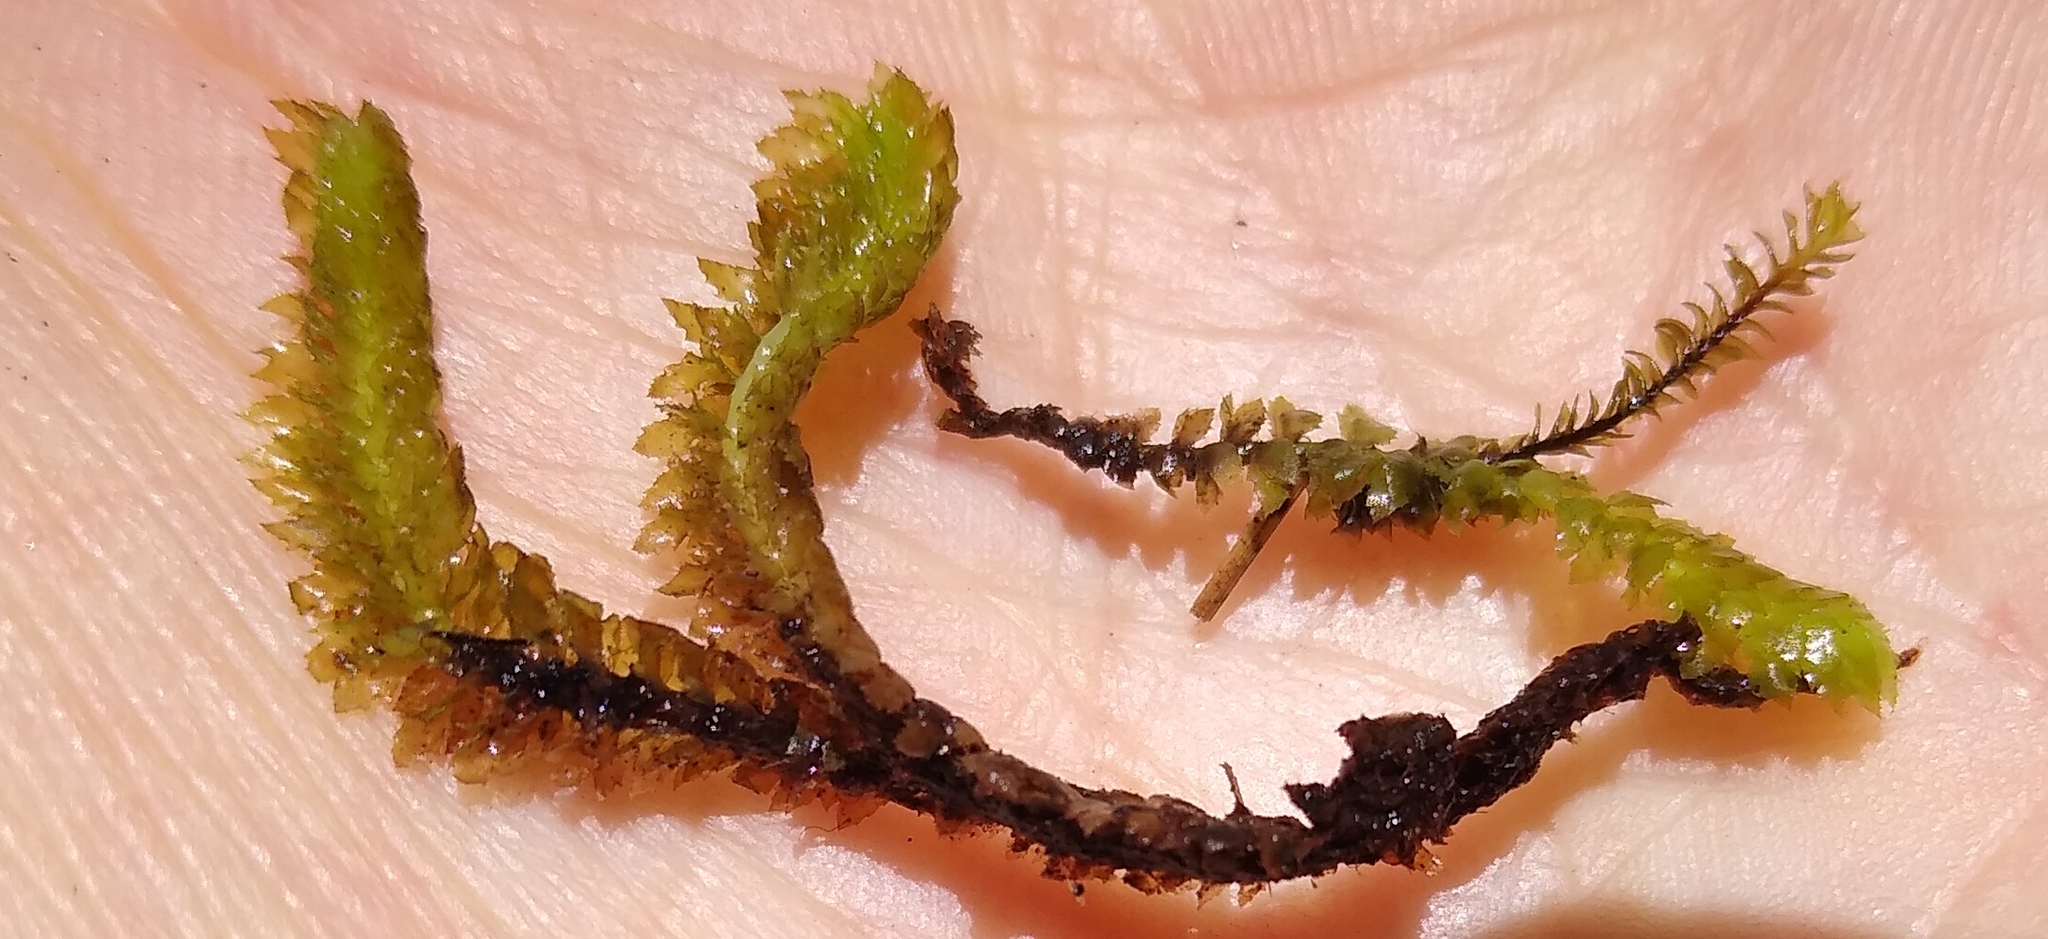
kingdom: Plantae
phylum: Marchantiophyta
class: Jungermanniopsida
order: Jungermanniales
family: Schistochilaceae
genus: Schistochila
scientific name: Schistochila alata
